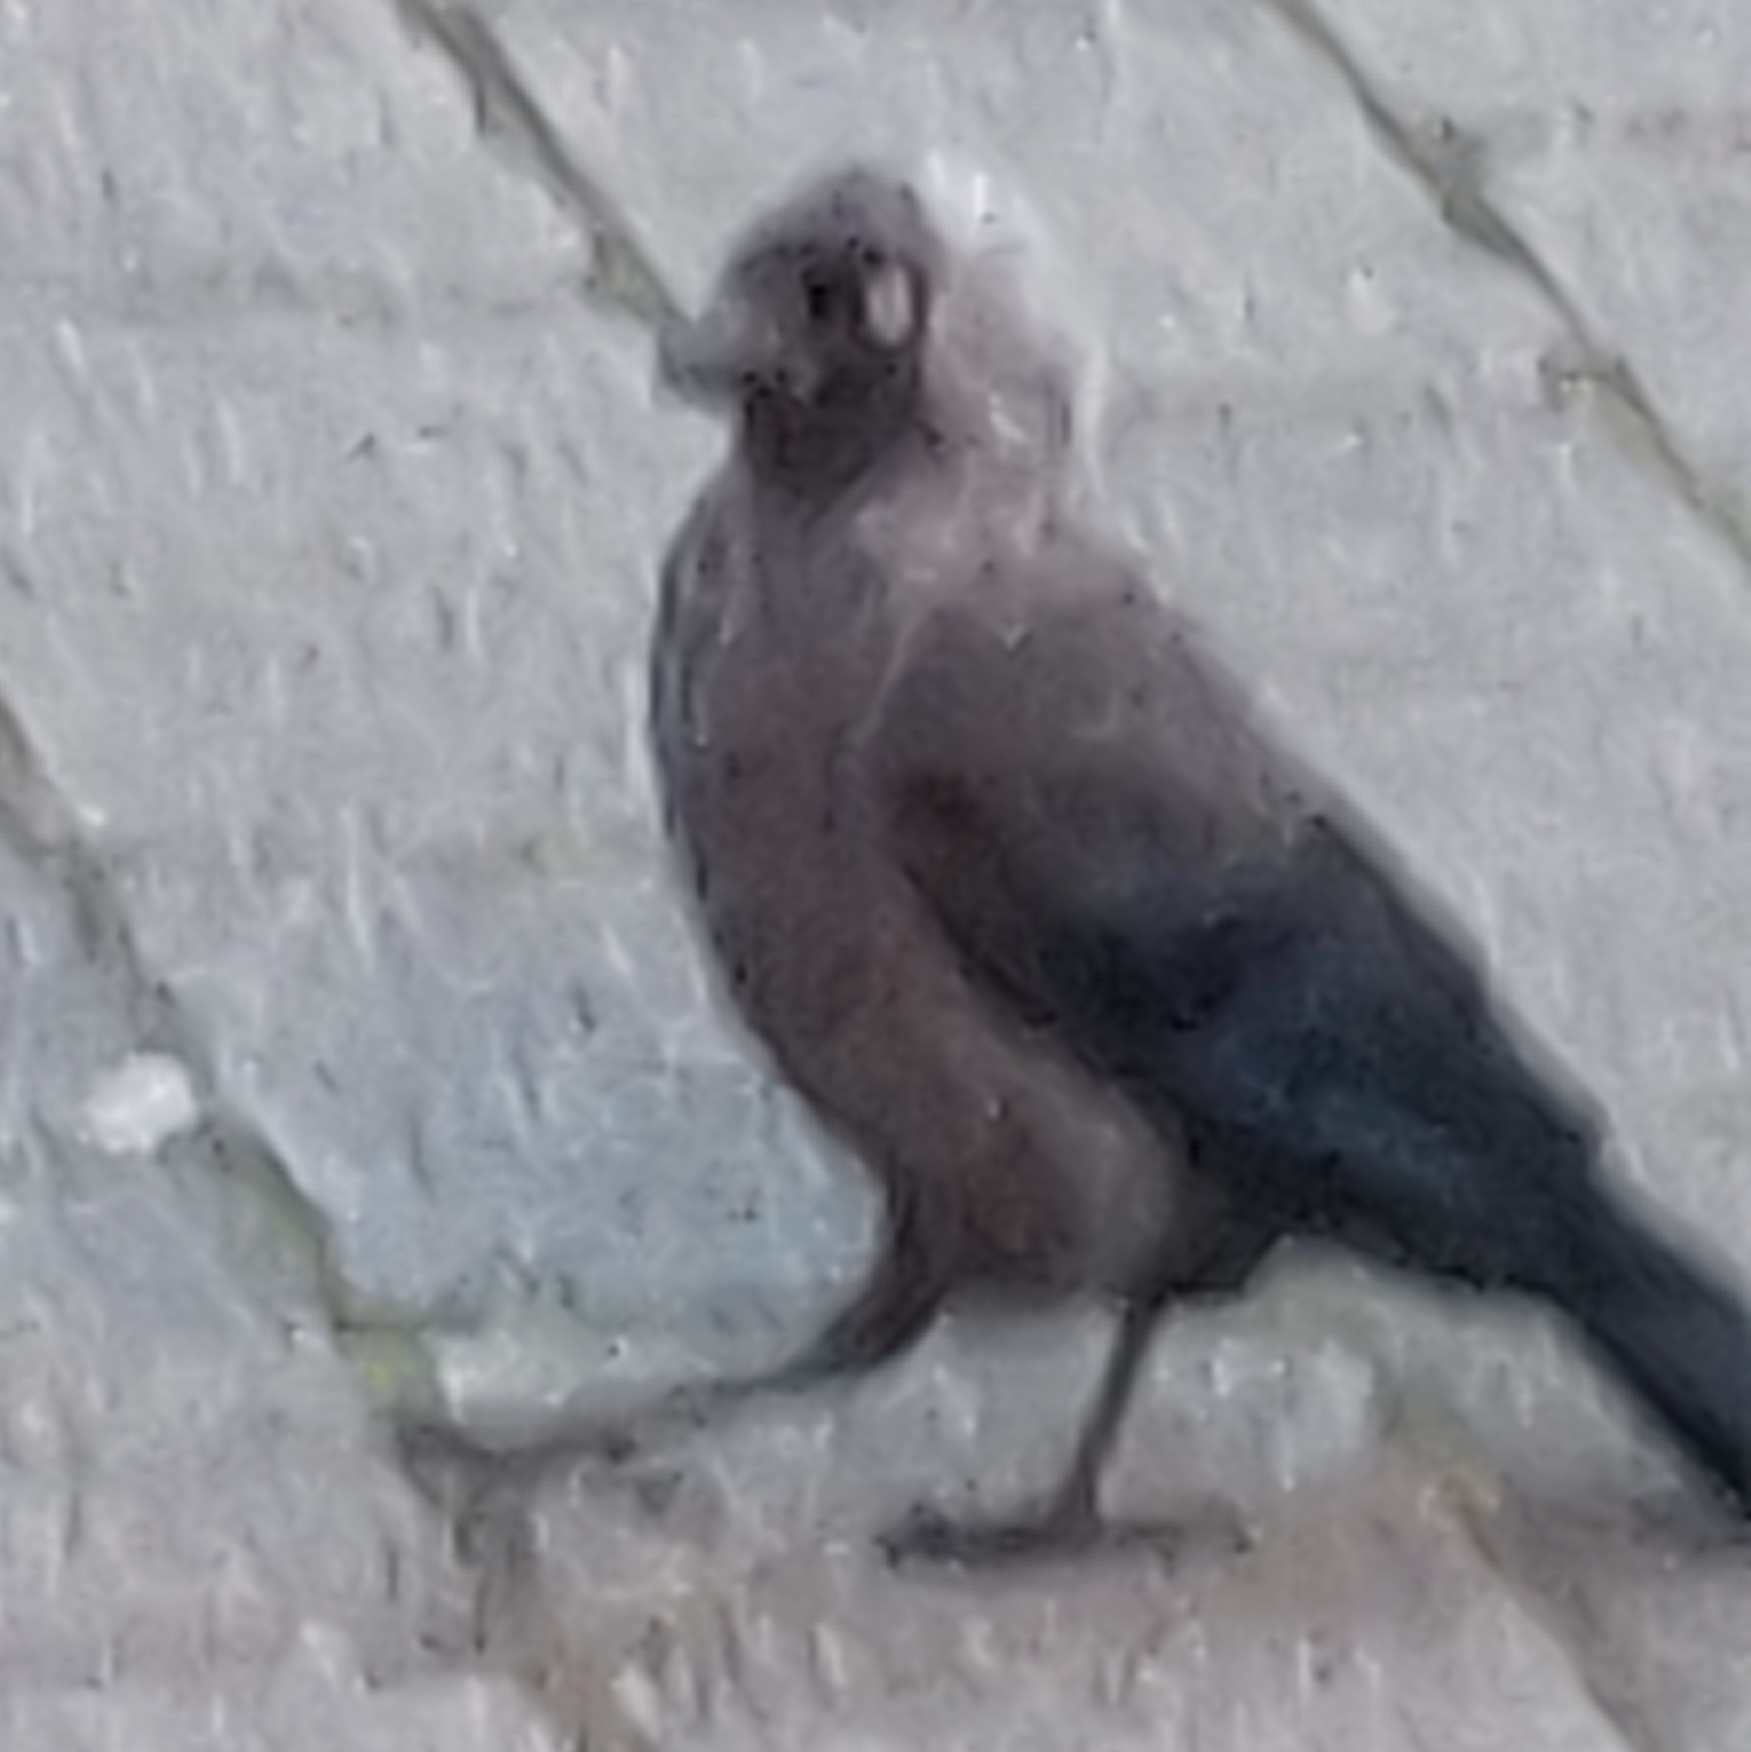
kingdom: Animalia
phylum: Chordata
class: Aves
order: Passeriformes
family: Corvidae
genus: Coloeus
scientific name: Coloeus monedula
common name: Western jackdaw
